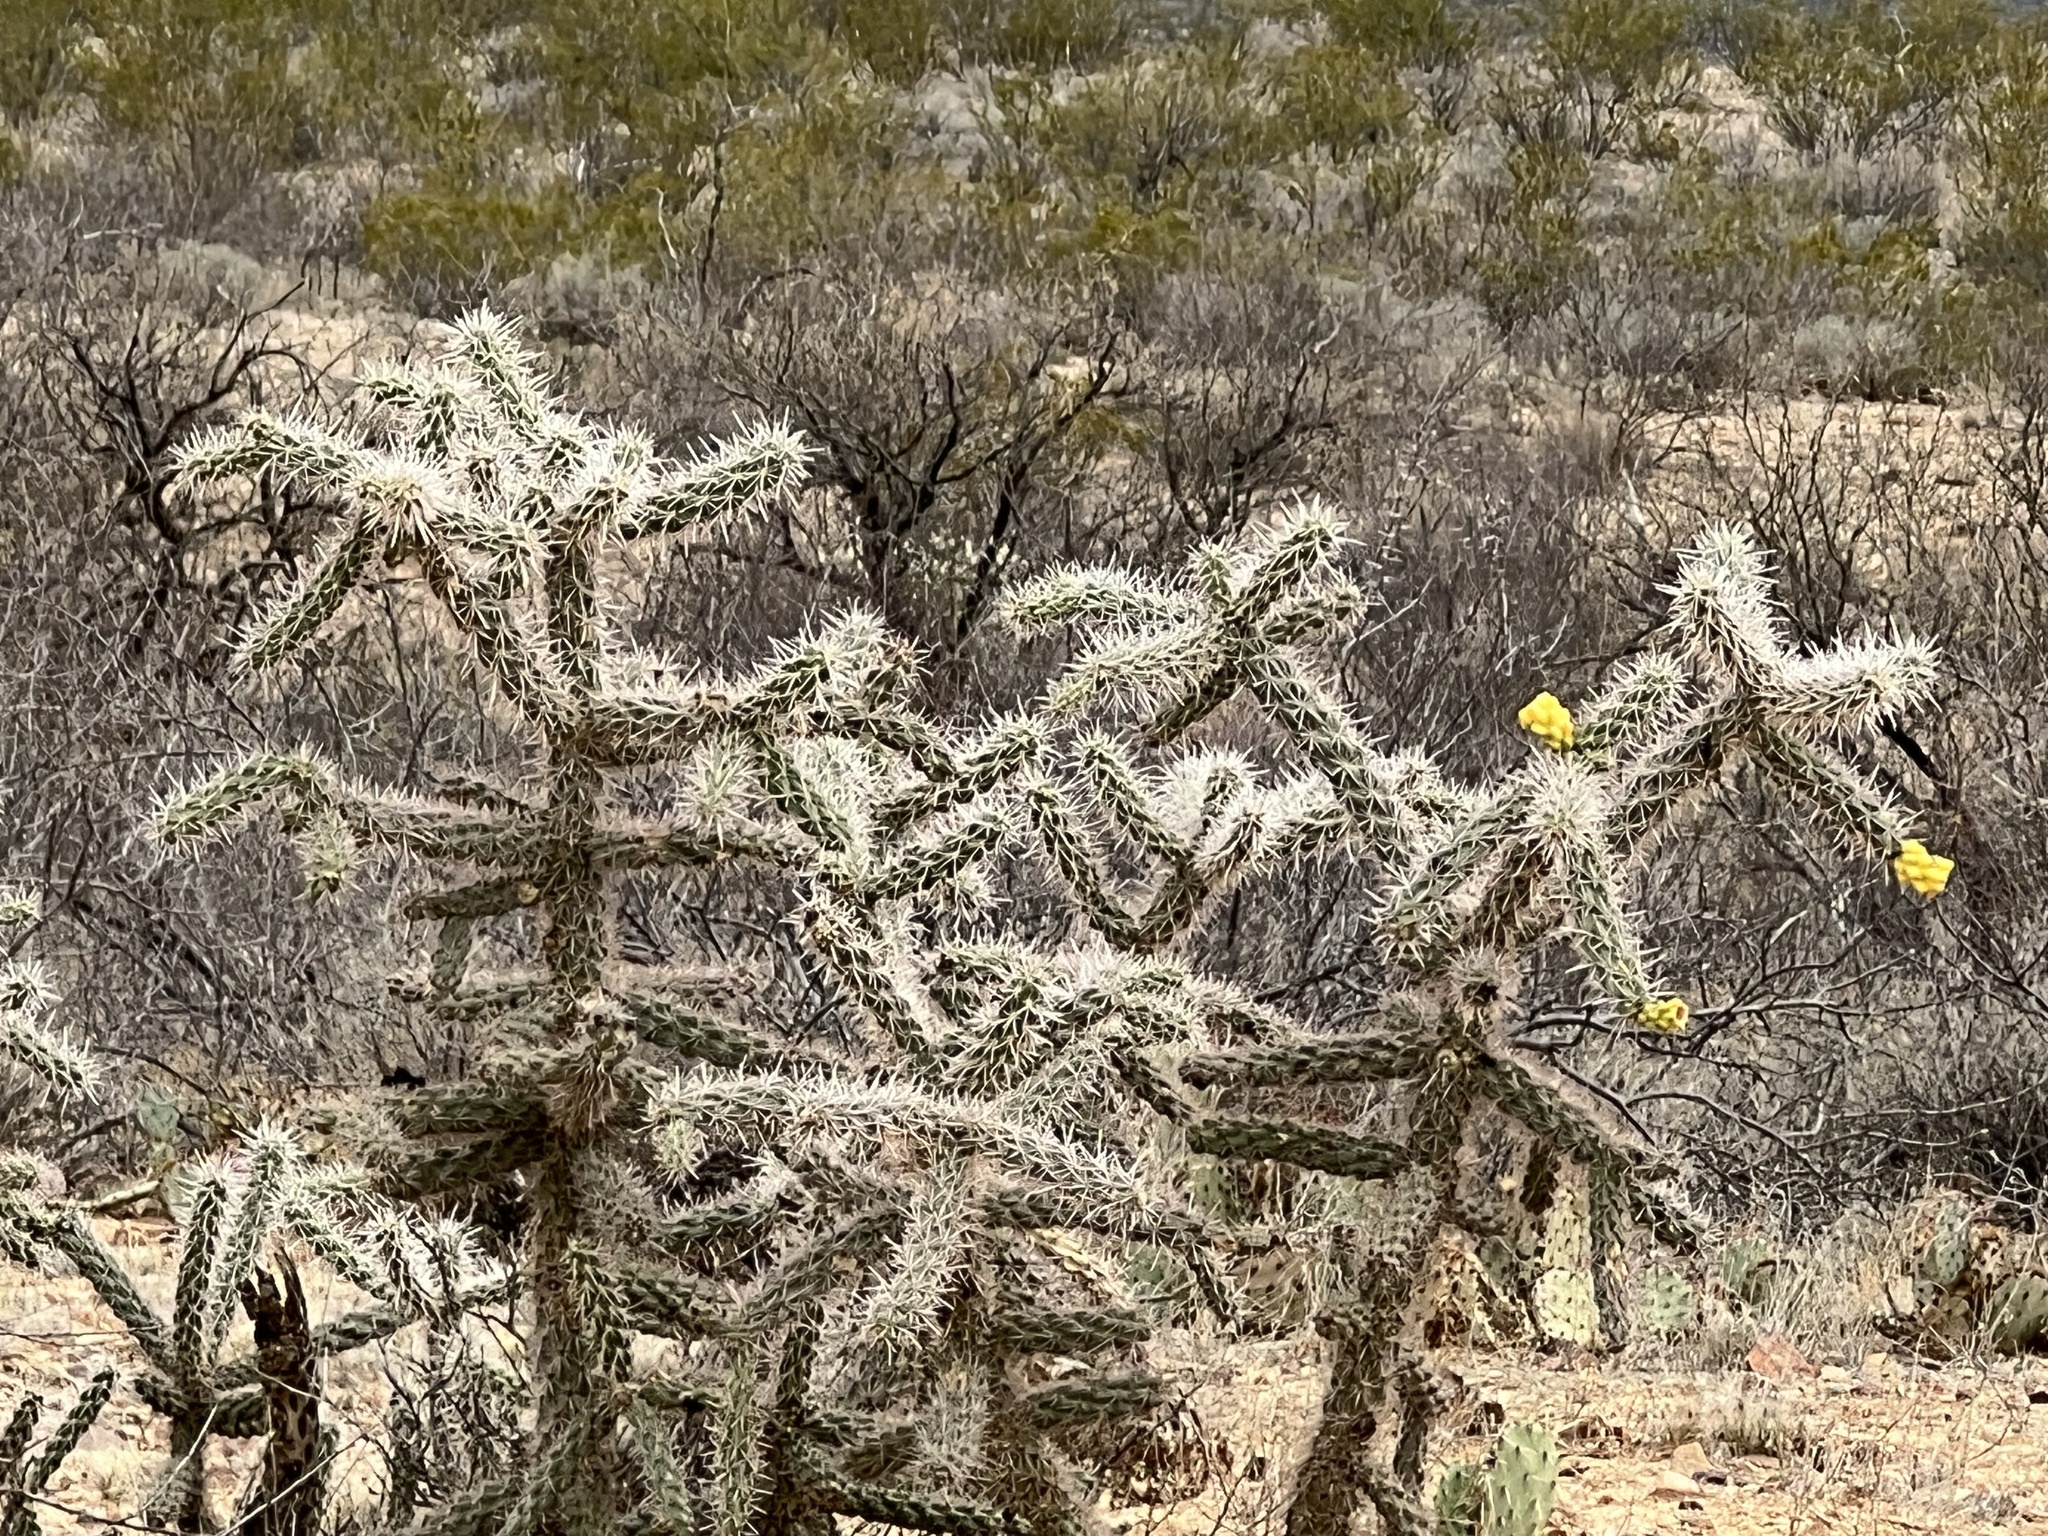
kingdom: Plantae
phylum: Tracheophyta
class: Magnoliopsida
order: Caryophyllales
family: Cactaceae
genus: Cylindropuntia
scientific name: Cylindropuntia imbricata
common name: Candelabrum cactus
